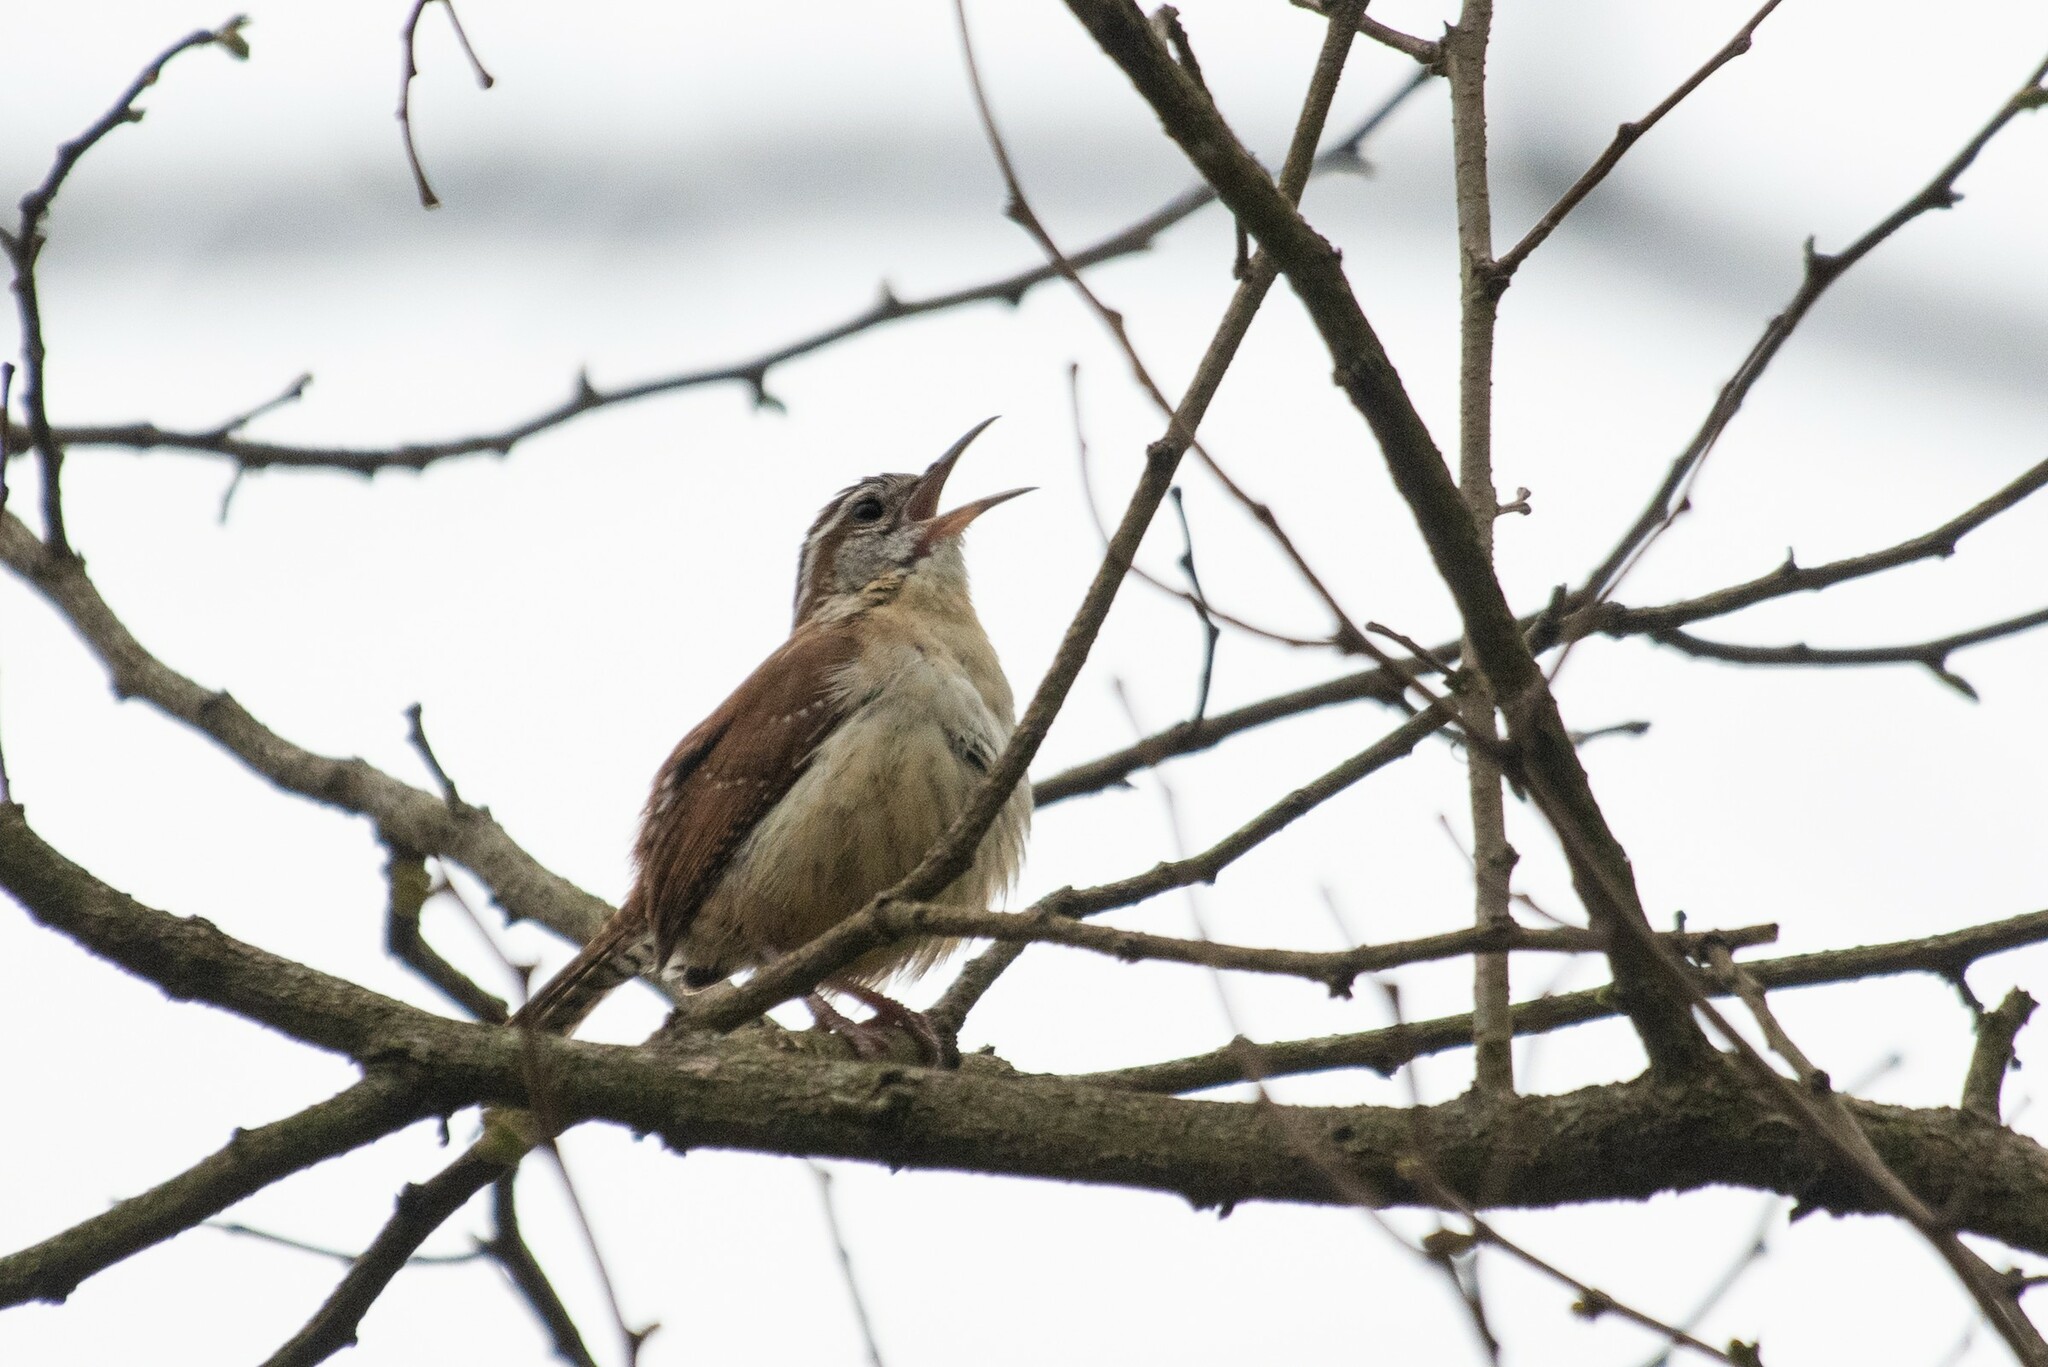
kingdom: Animalia
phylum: Chordata
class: Aves
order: Passeriformes
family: Troglodytidae
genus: Thryothorus
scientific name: Thryothorus ludovicianus
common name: Carolina wren
